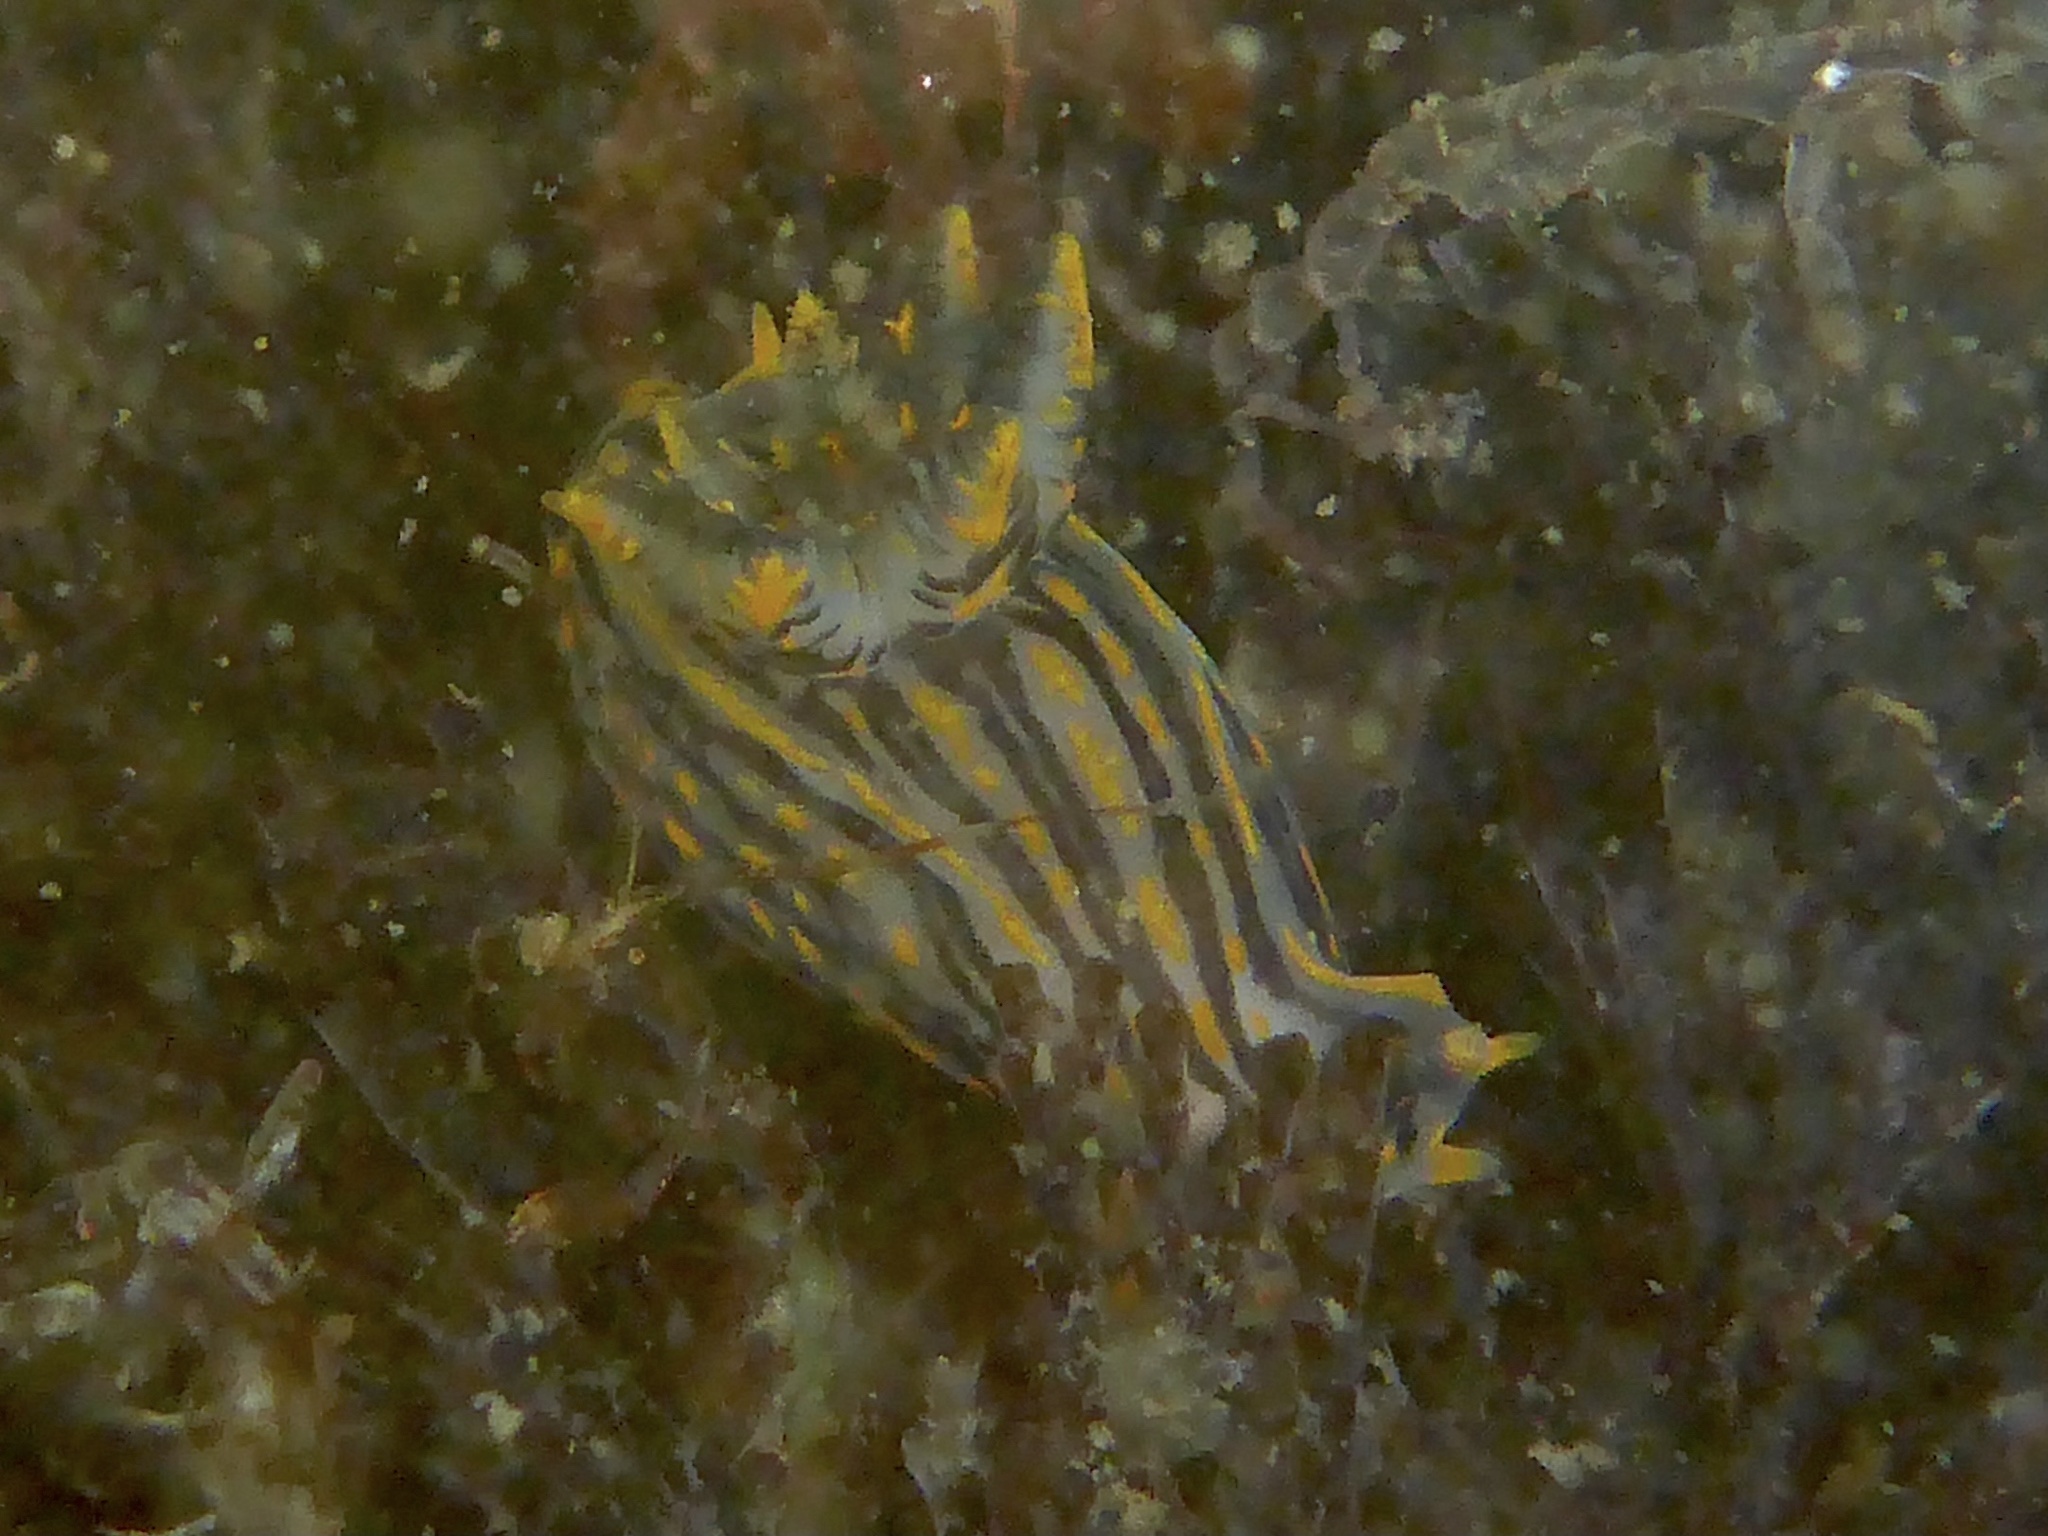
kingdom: Animalia
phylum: Mollusca
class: Gastropoda
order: Nudibranchia
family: Polyceridae
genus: Polycera
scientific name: Polycera atra
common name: Orange-spike polycera
